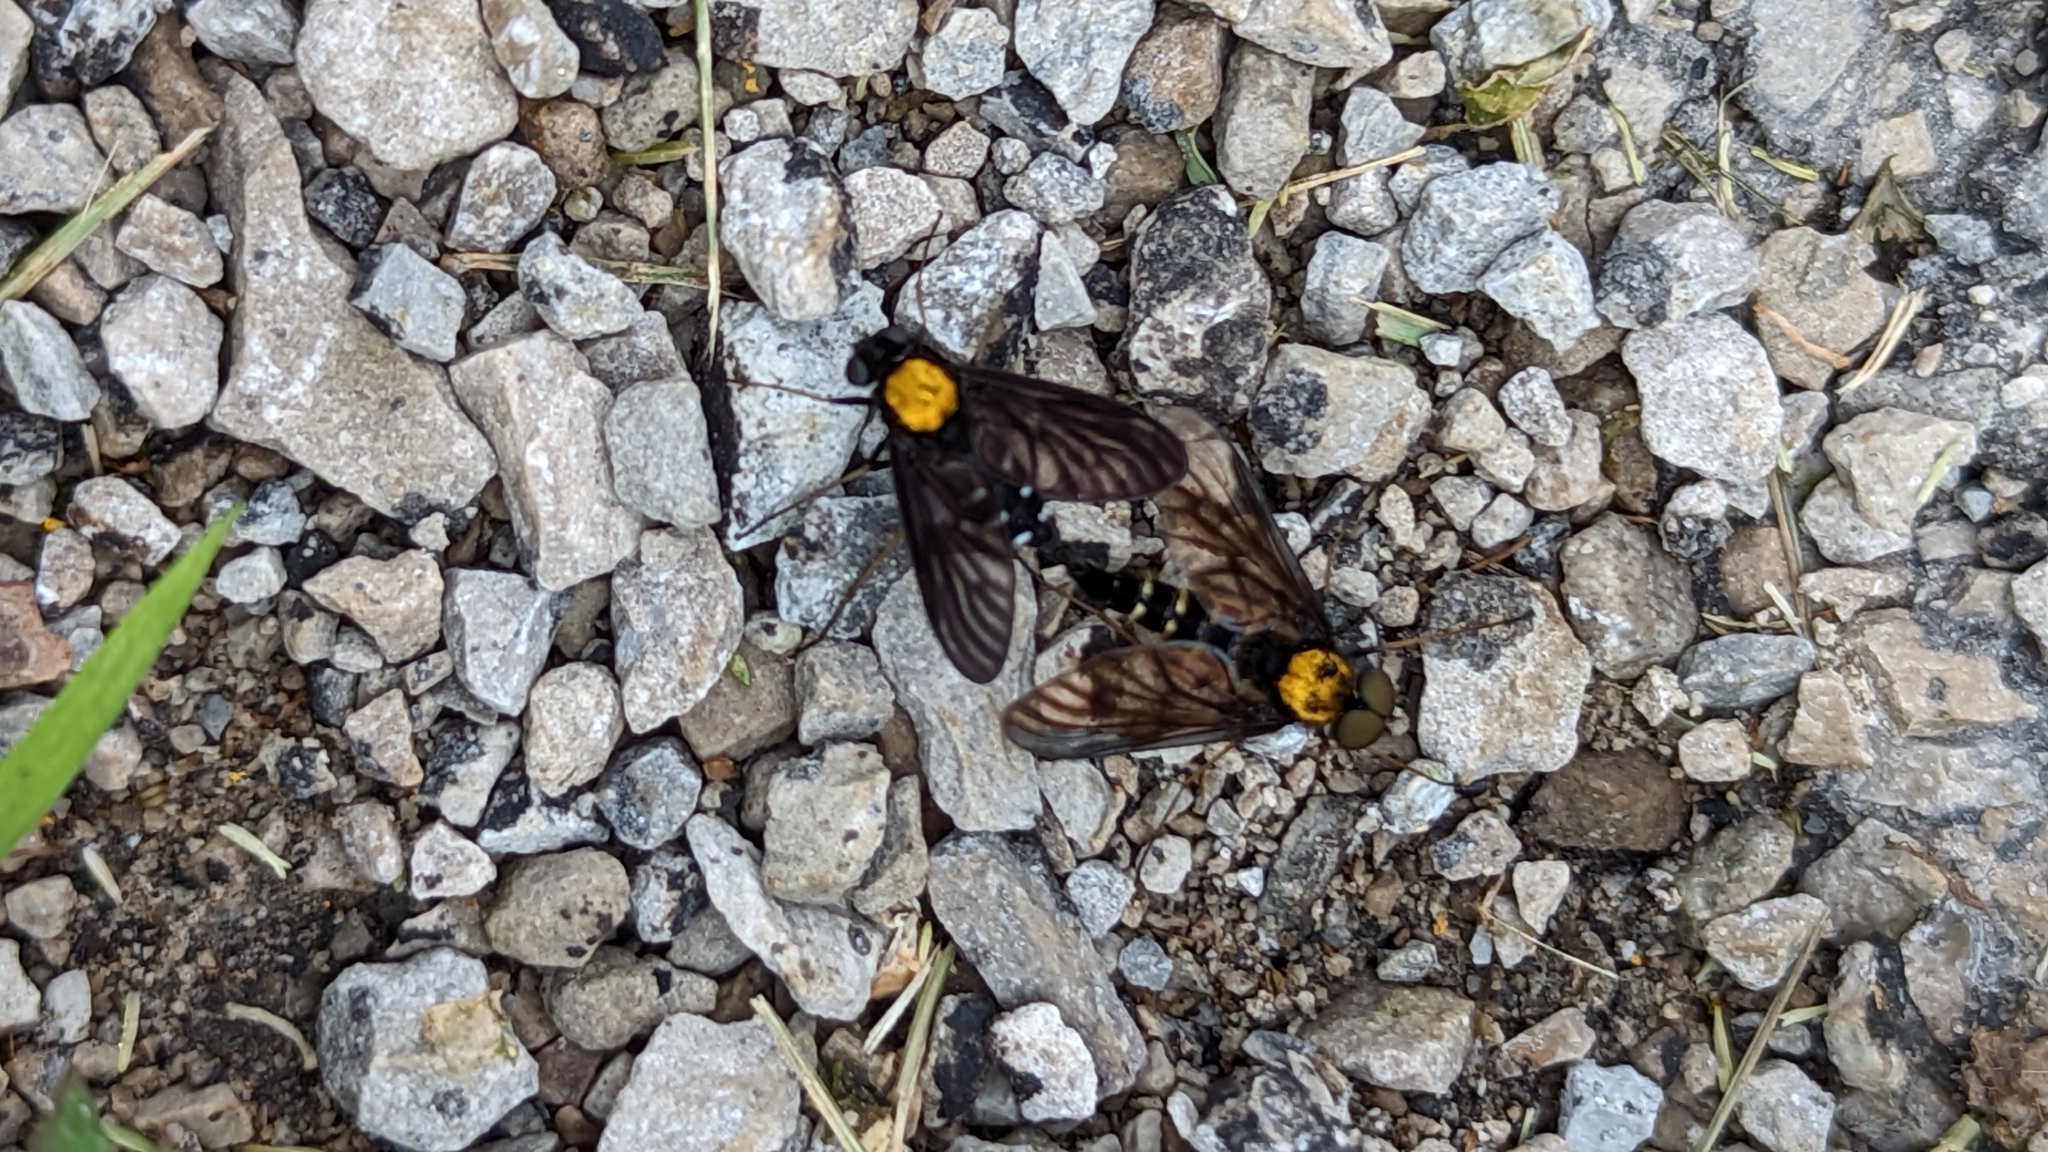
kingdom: Animalia
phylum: Arthropoda
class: Insecta
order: Diptera
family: Rhagionidae
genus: Chrysopilus
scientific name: Chrysopilus thoracicus
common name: Golden-backed snipe fly
